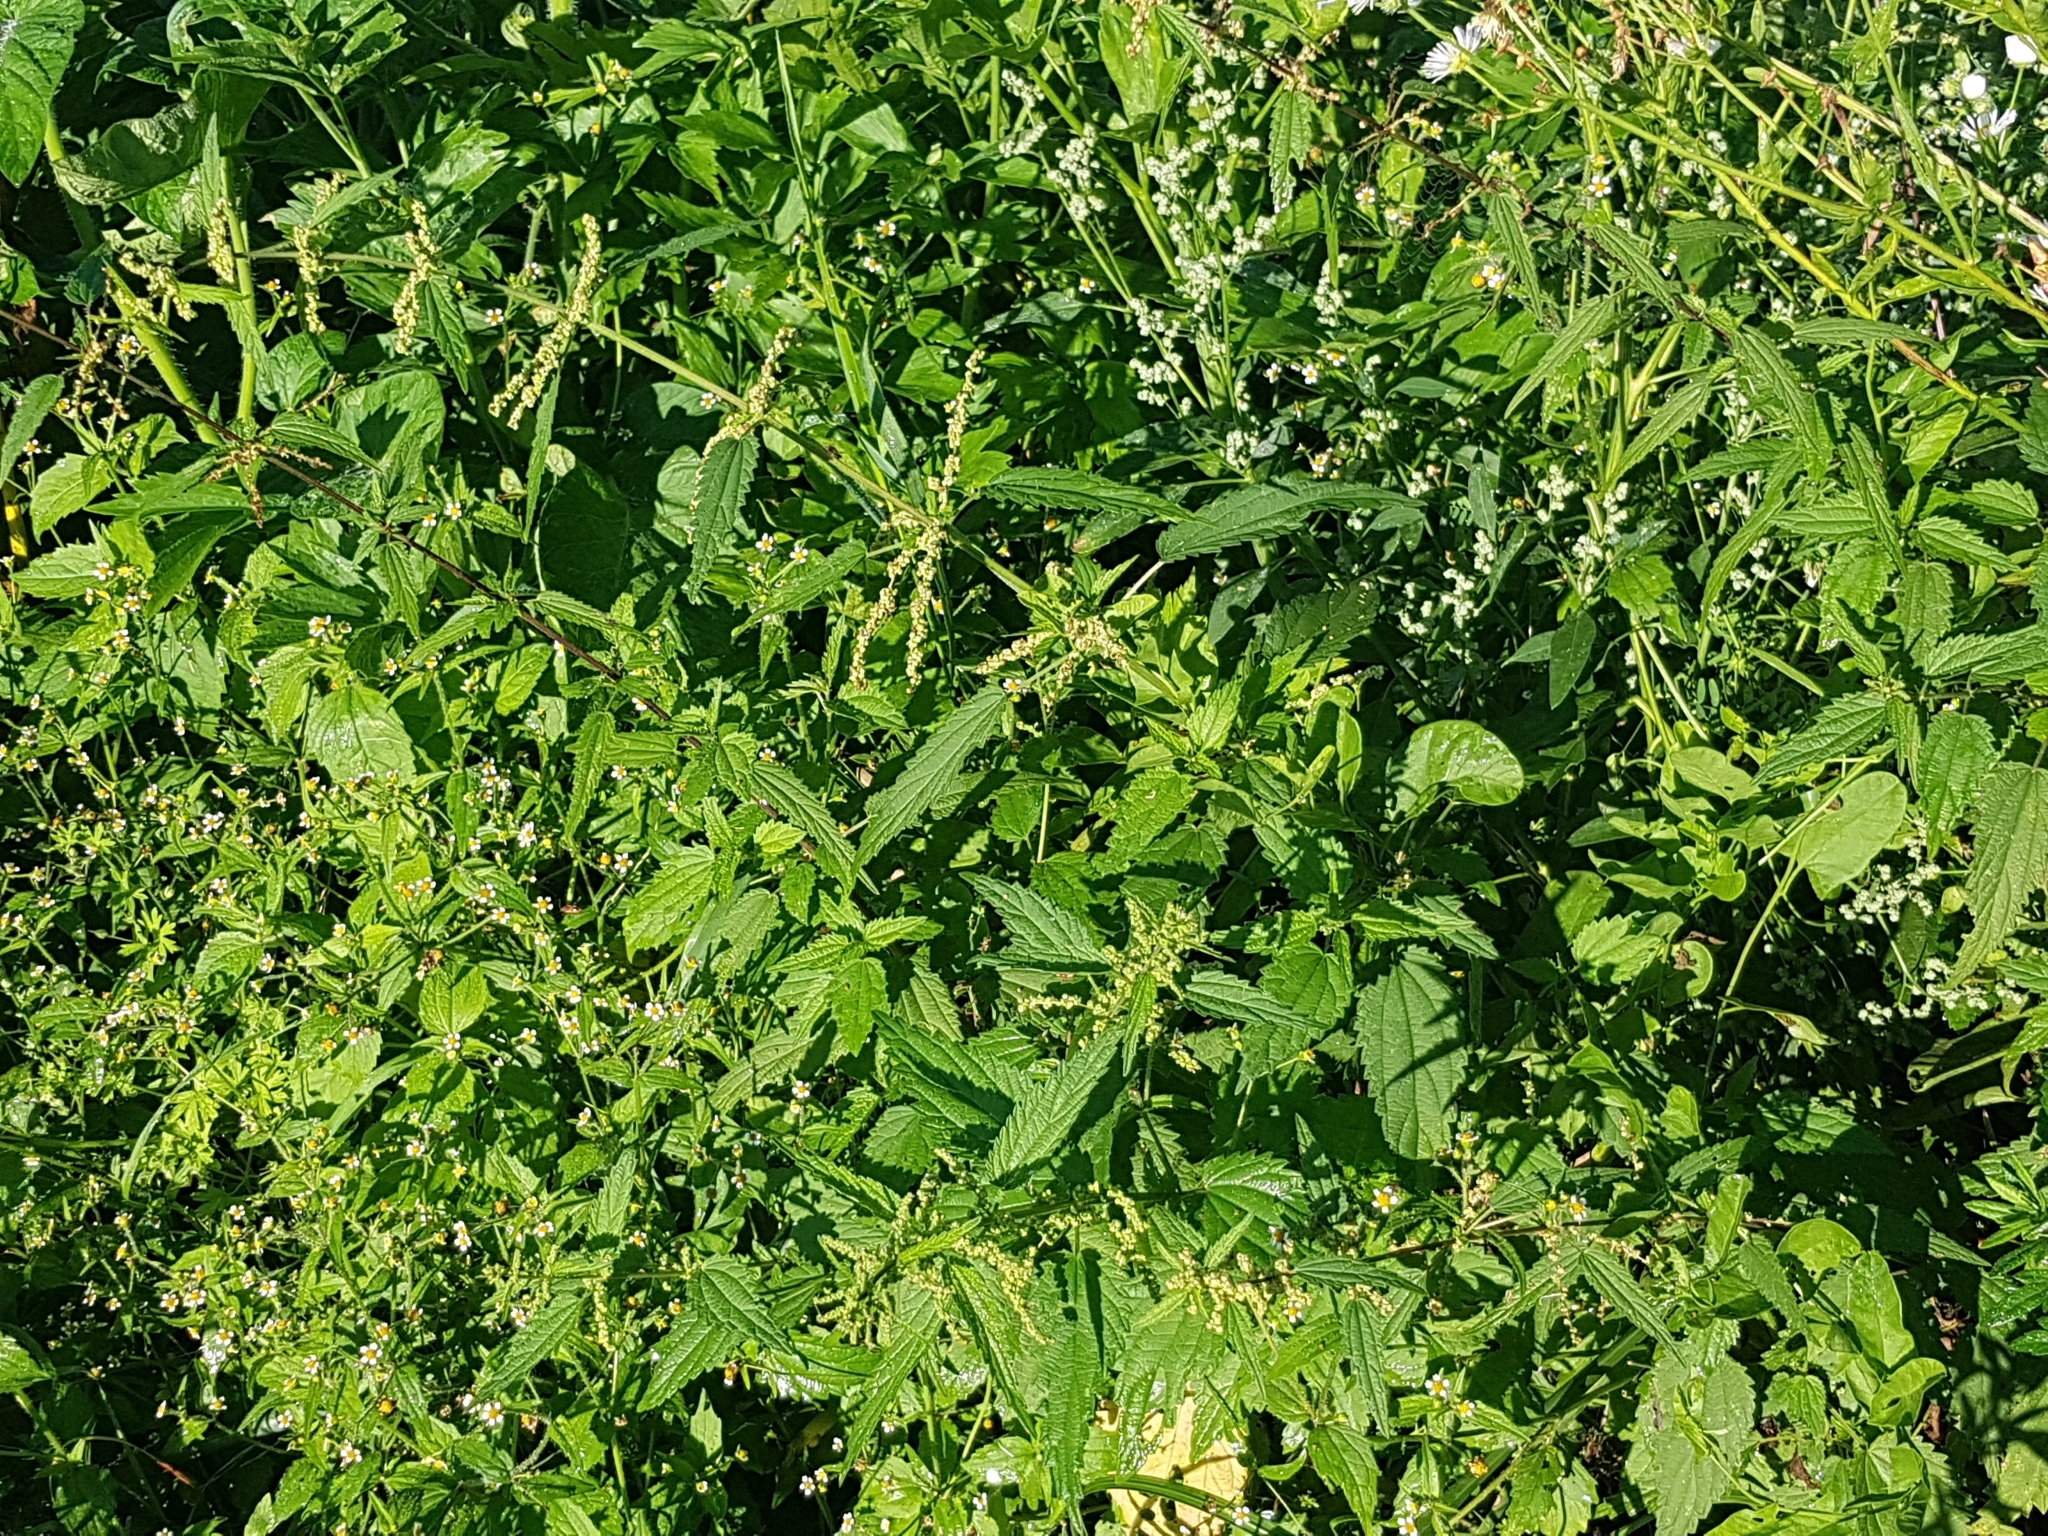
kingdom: Plantae
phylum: Tracheophyta
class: Magnoliopsida
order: Rosales
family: Urticaceae
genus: Urtica
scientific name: Urtica dioica
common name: Common nettle
